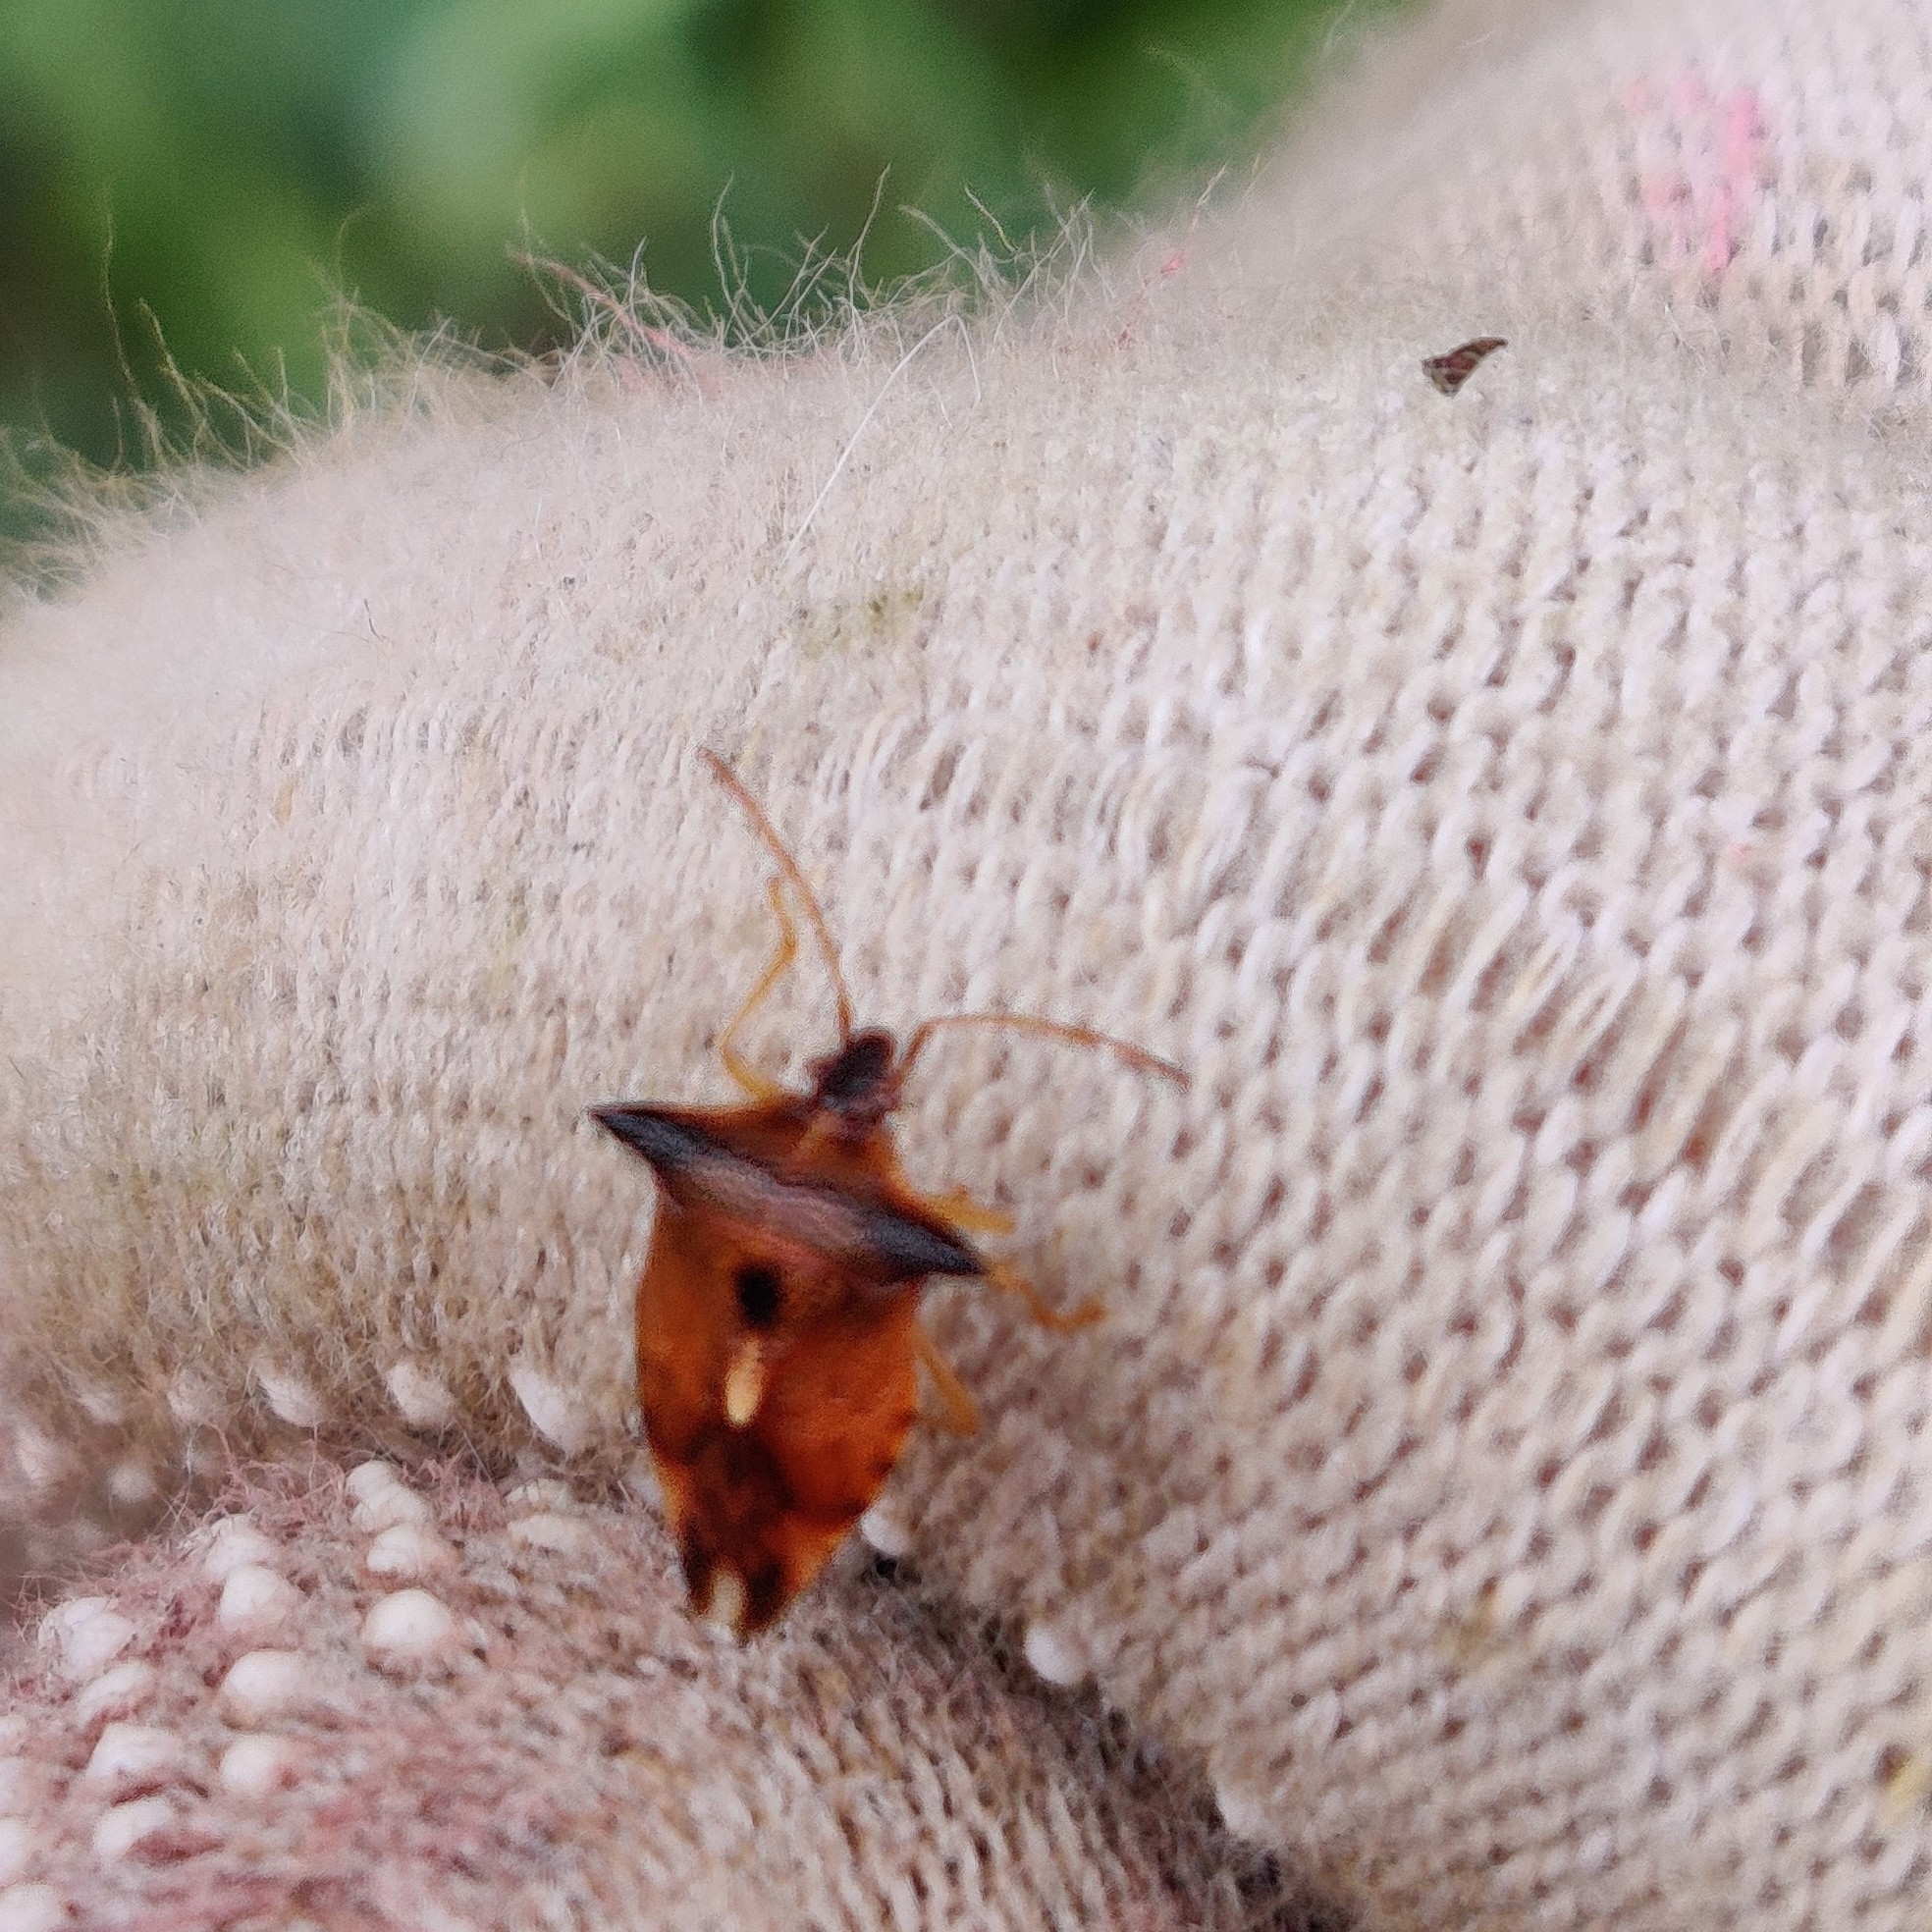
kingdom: Animalia
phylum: Arthropoda
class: Insecta
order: Hemiptera
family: Acanthosomatidae
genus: Elasmucha
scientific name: Elasmucha ferrugata
